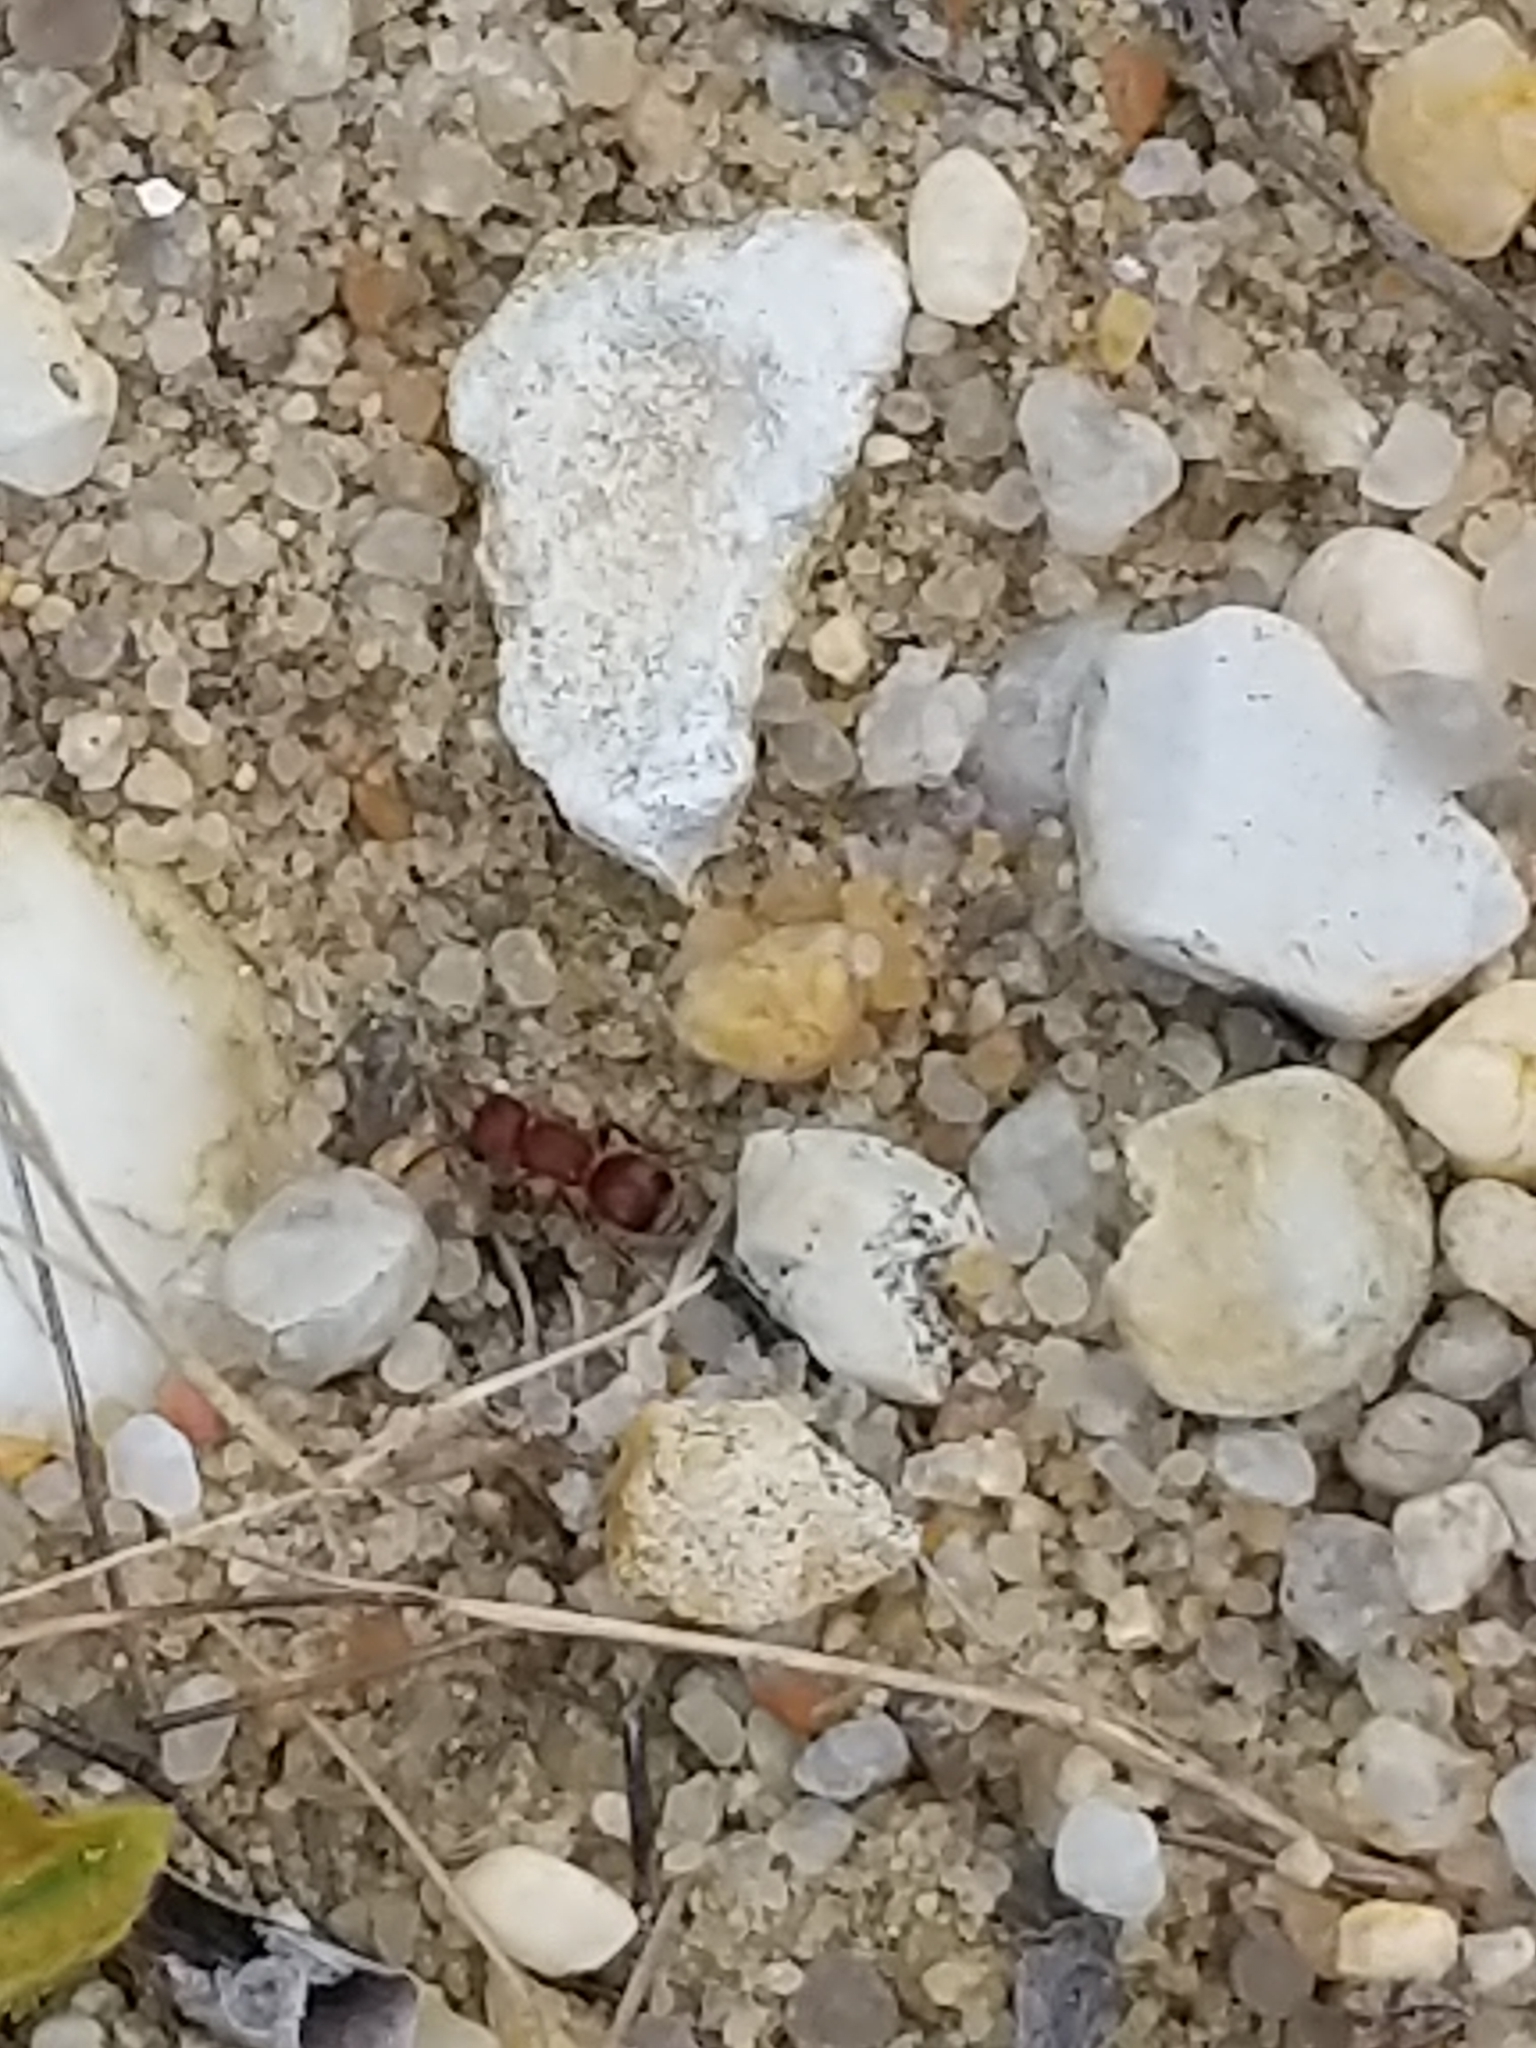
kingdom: Animalia
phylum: Arthropoda
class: Insecta
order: Hymenoptera
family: Mutillidae
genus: Pseudomethoca
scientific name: Pseudomethoca
